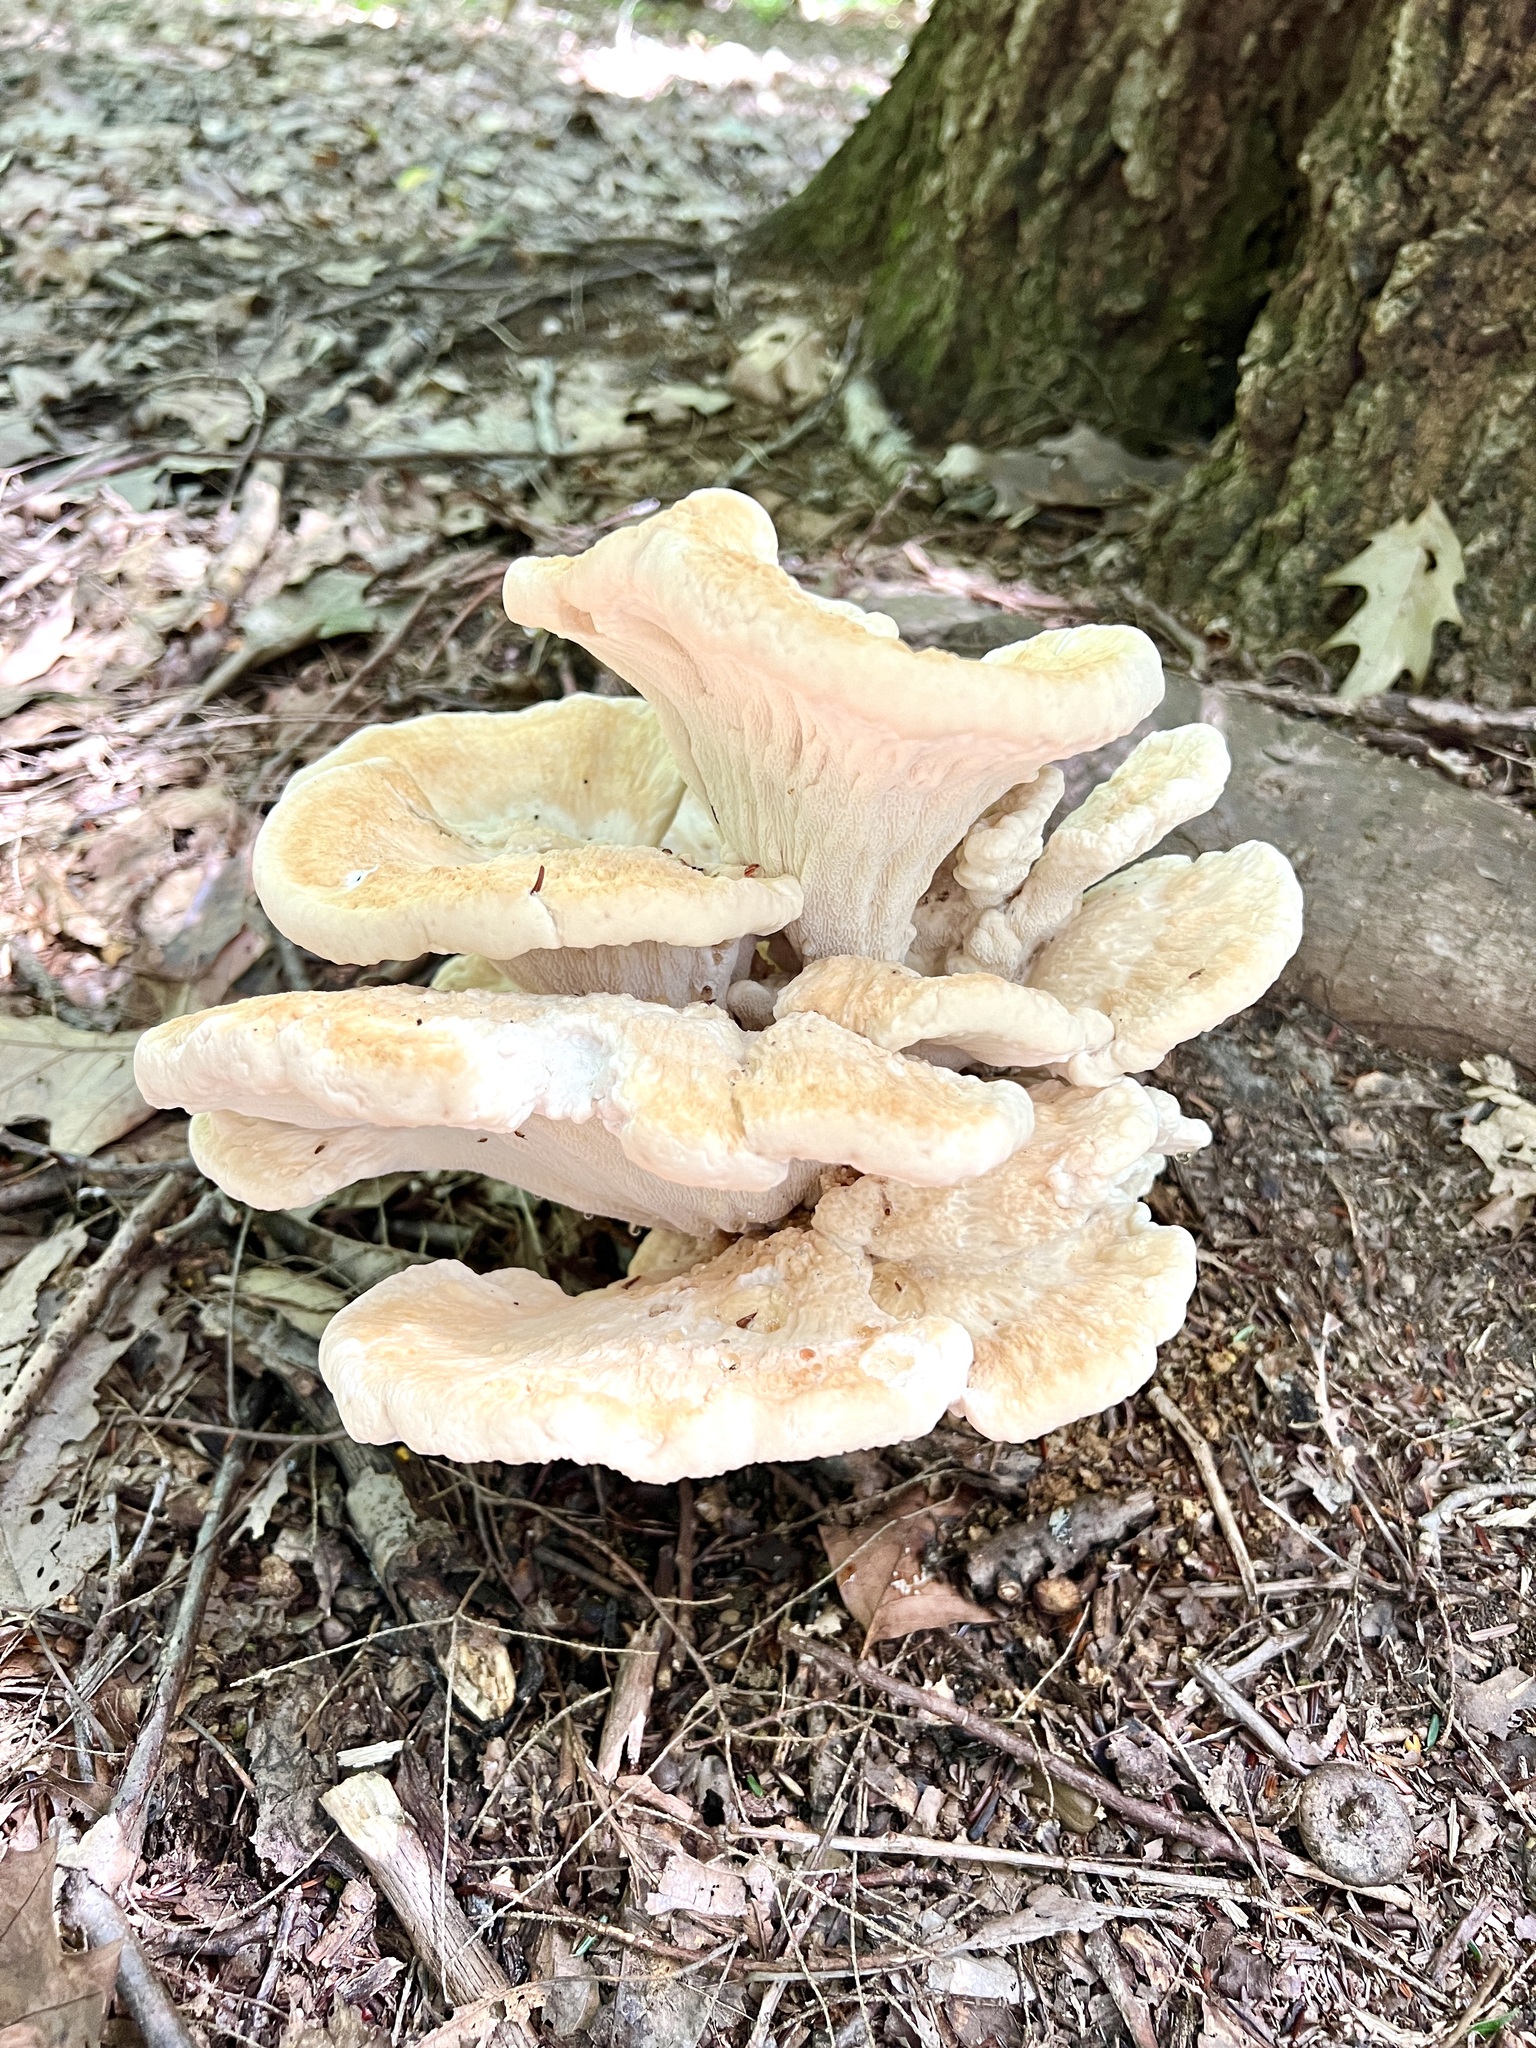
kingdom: Fungi
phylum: Basidiomycota
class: Agaricomycetes
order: Russulales
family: Bondarzewiaceae
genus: Bondarzewia
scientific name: Bondarzewia berkeleyi
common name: Berkeley's polypore
